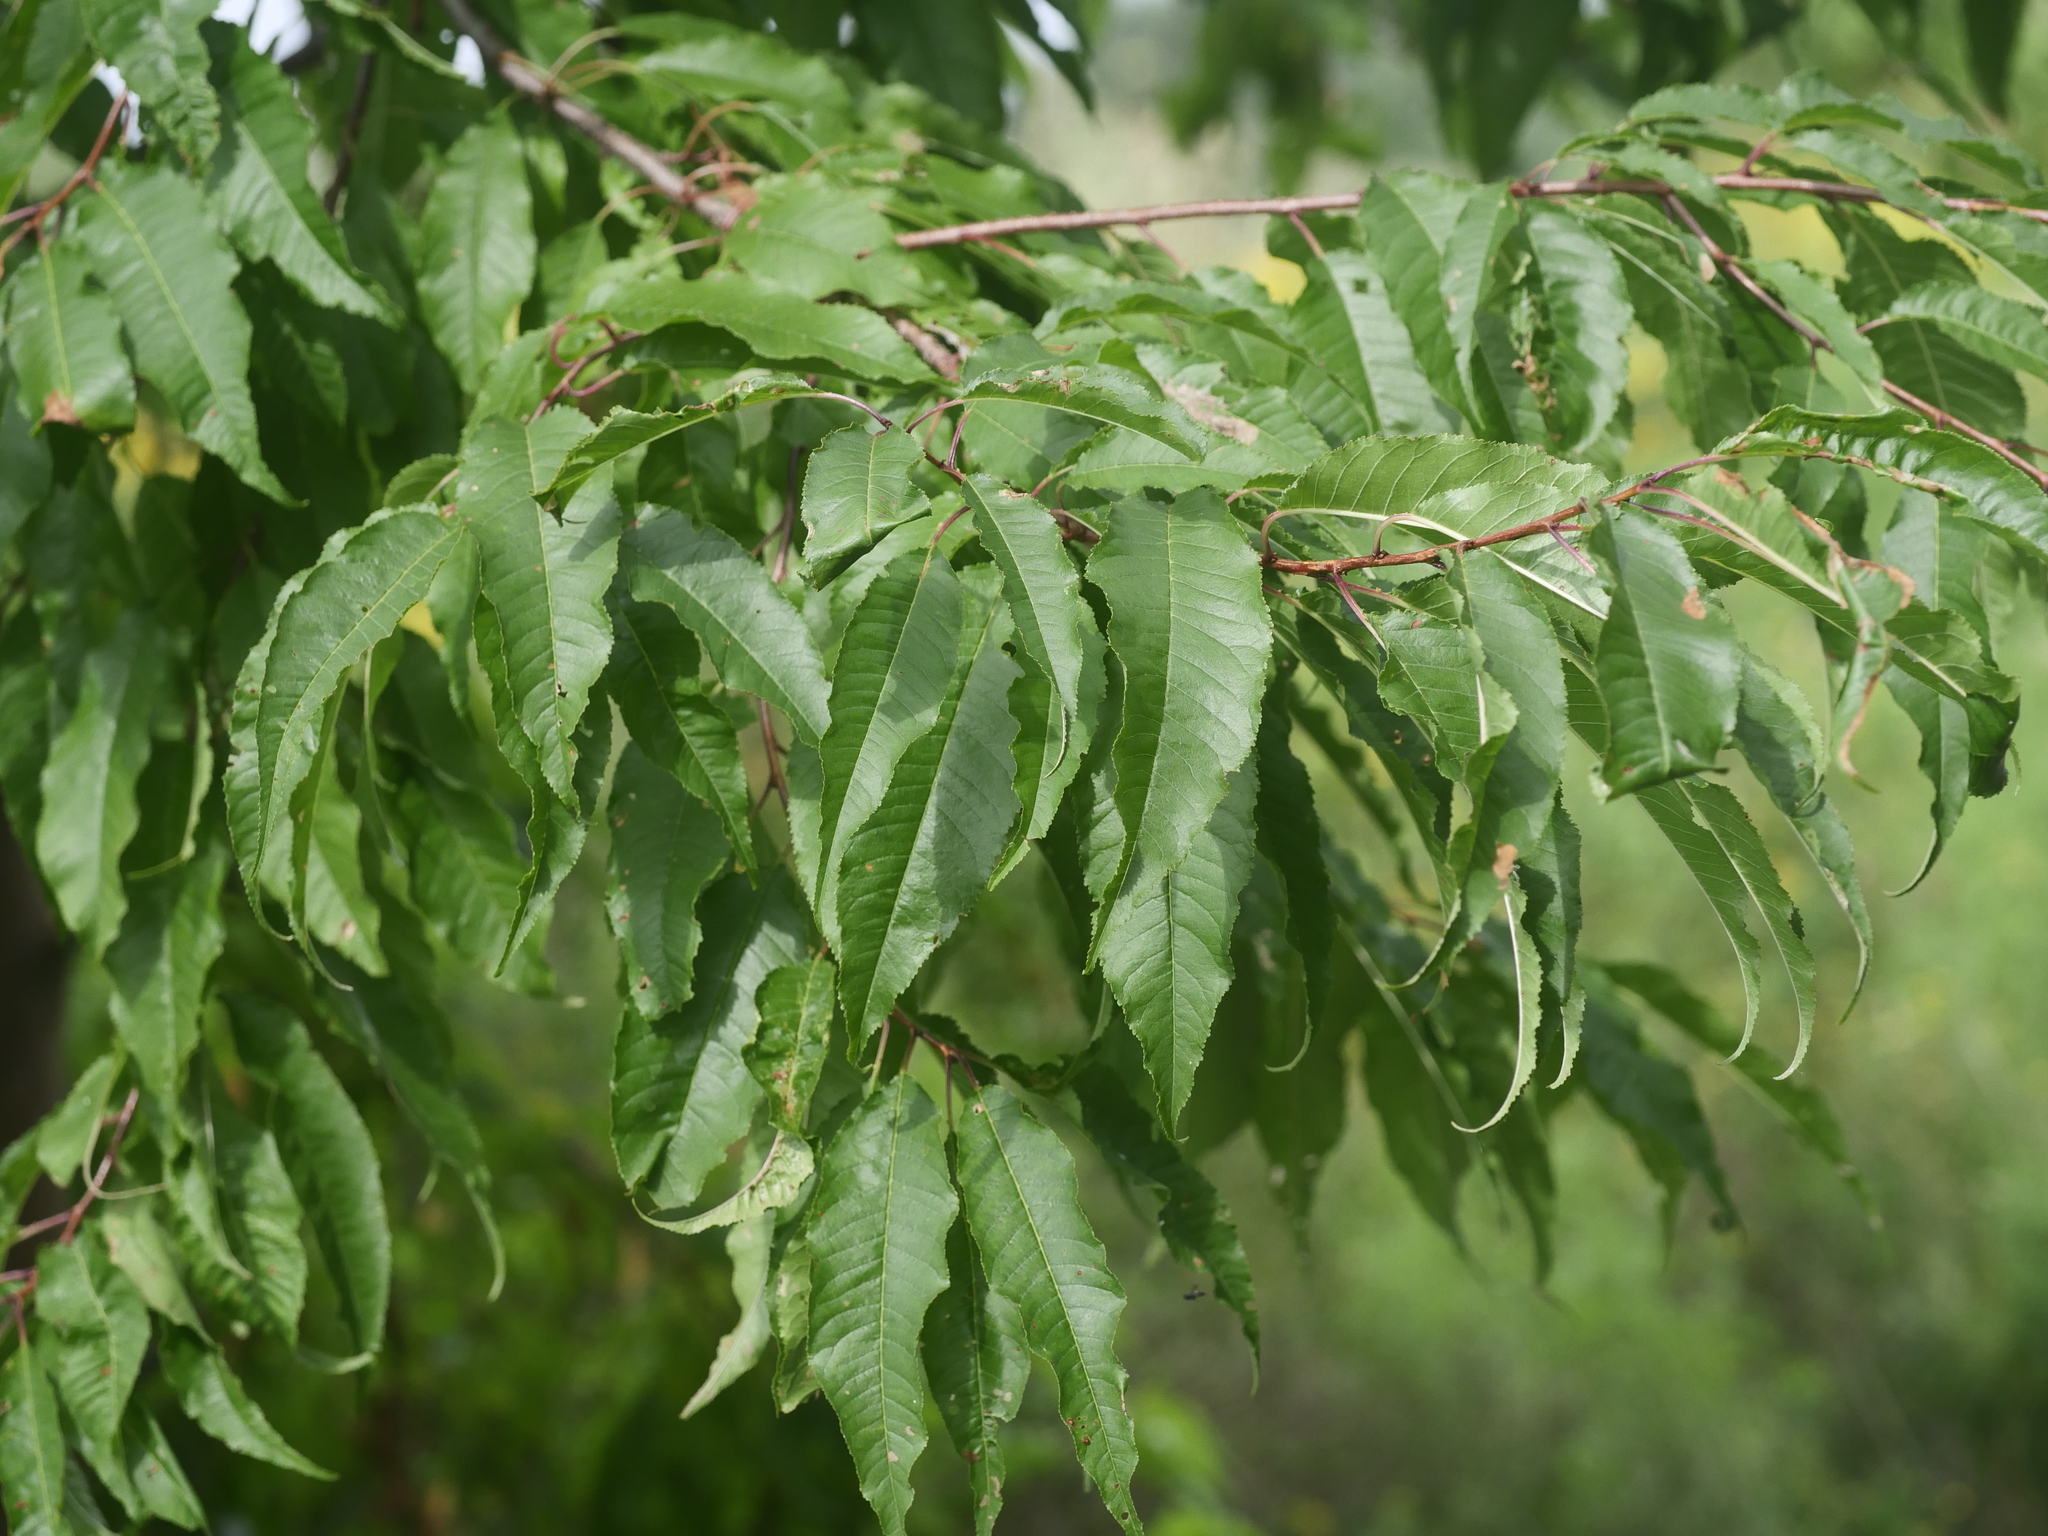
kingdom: Plantae
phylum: Tracheophyta
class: Magnoliopsida
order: Rosales
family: Rosaceae
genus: Prunus
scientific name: Prunus pensylvanica
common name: Pin cherry
